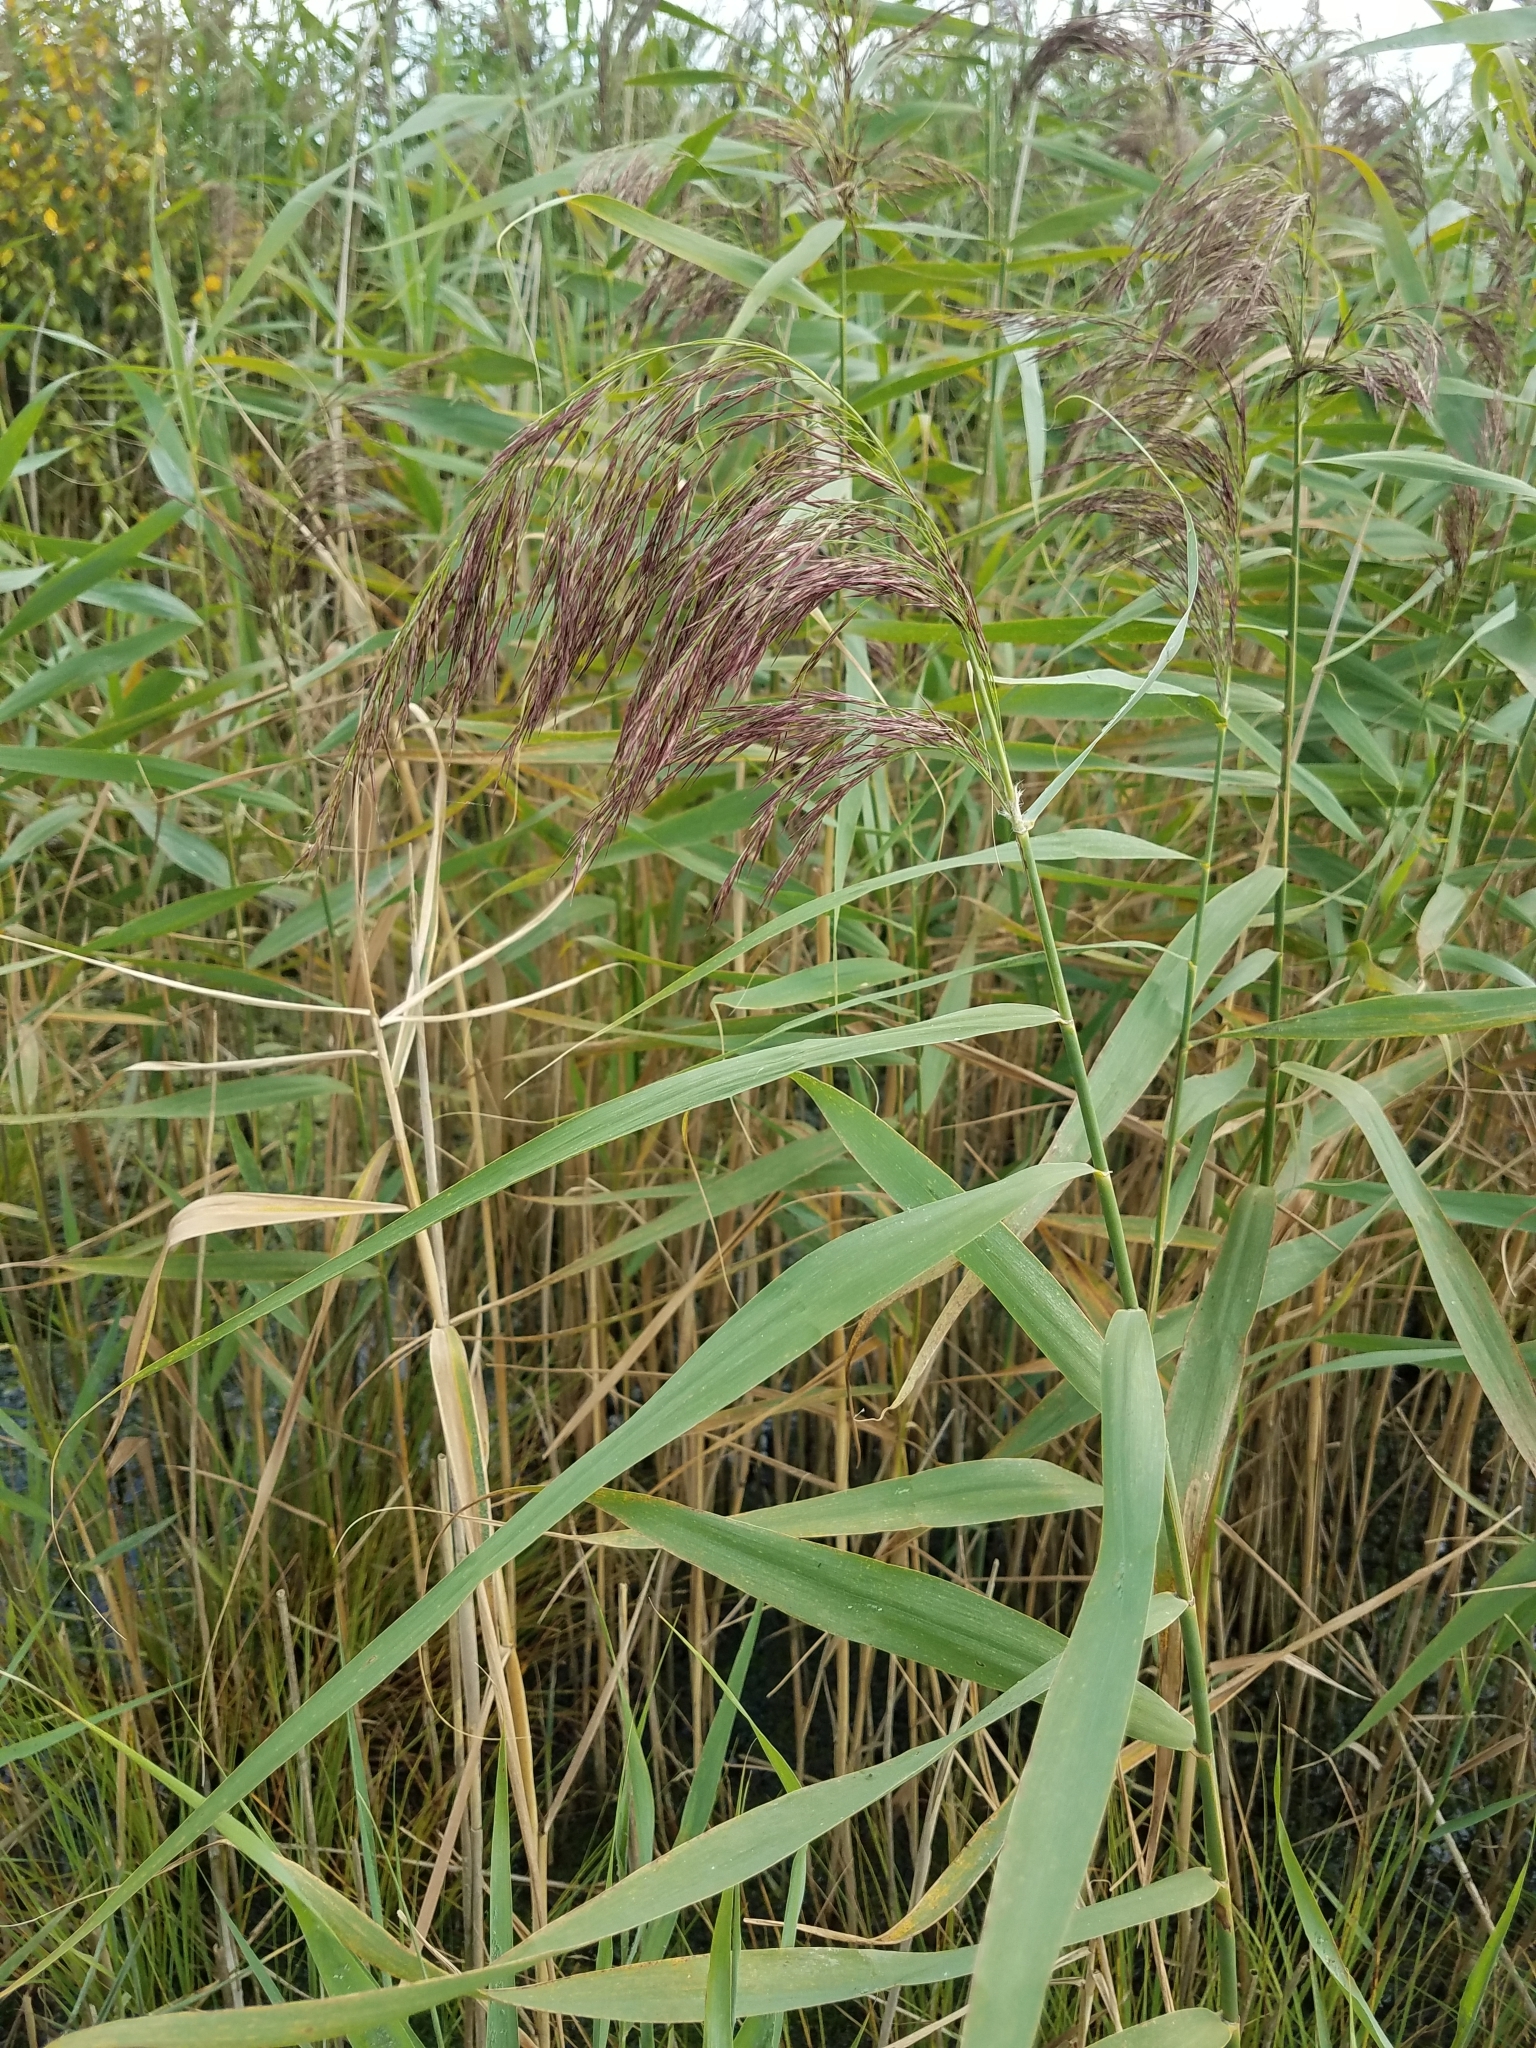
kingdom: Plantae
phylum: Tracheophyta
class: Liliopsida
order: Poales
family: Poaceae
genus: Phragmites
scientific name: Phragmites australis
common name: Common reed
